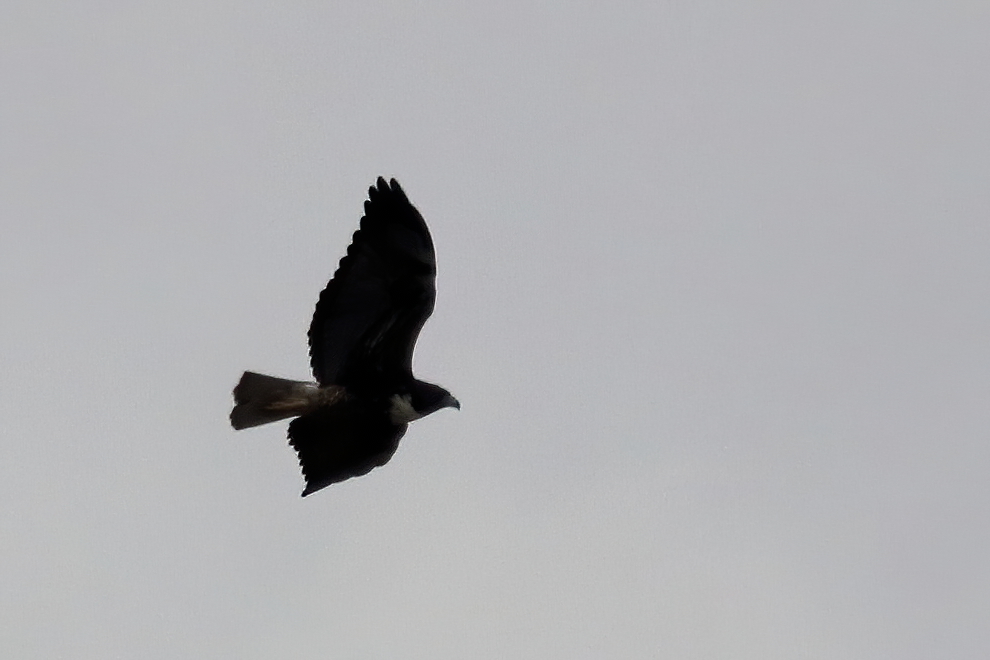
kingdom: Animalia
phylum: Chordata
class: Aves
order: Accipitriformes
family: Accipitridae
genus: Buteo
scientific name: Buteo albicaudatus
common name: White-tailed hawk
